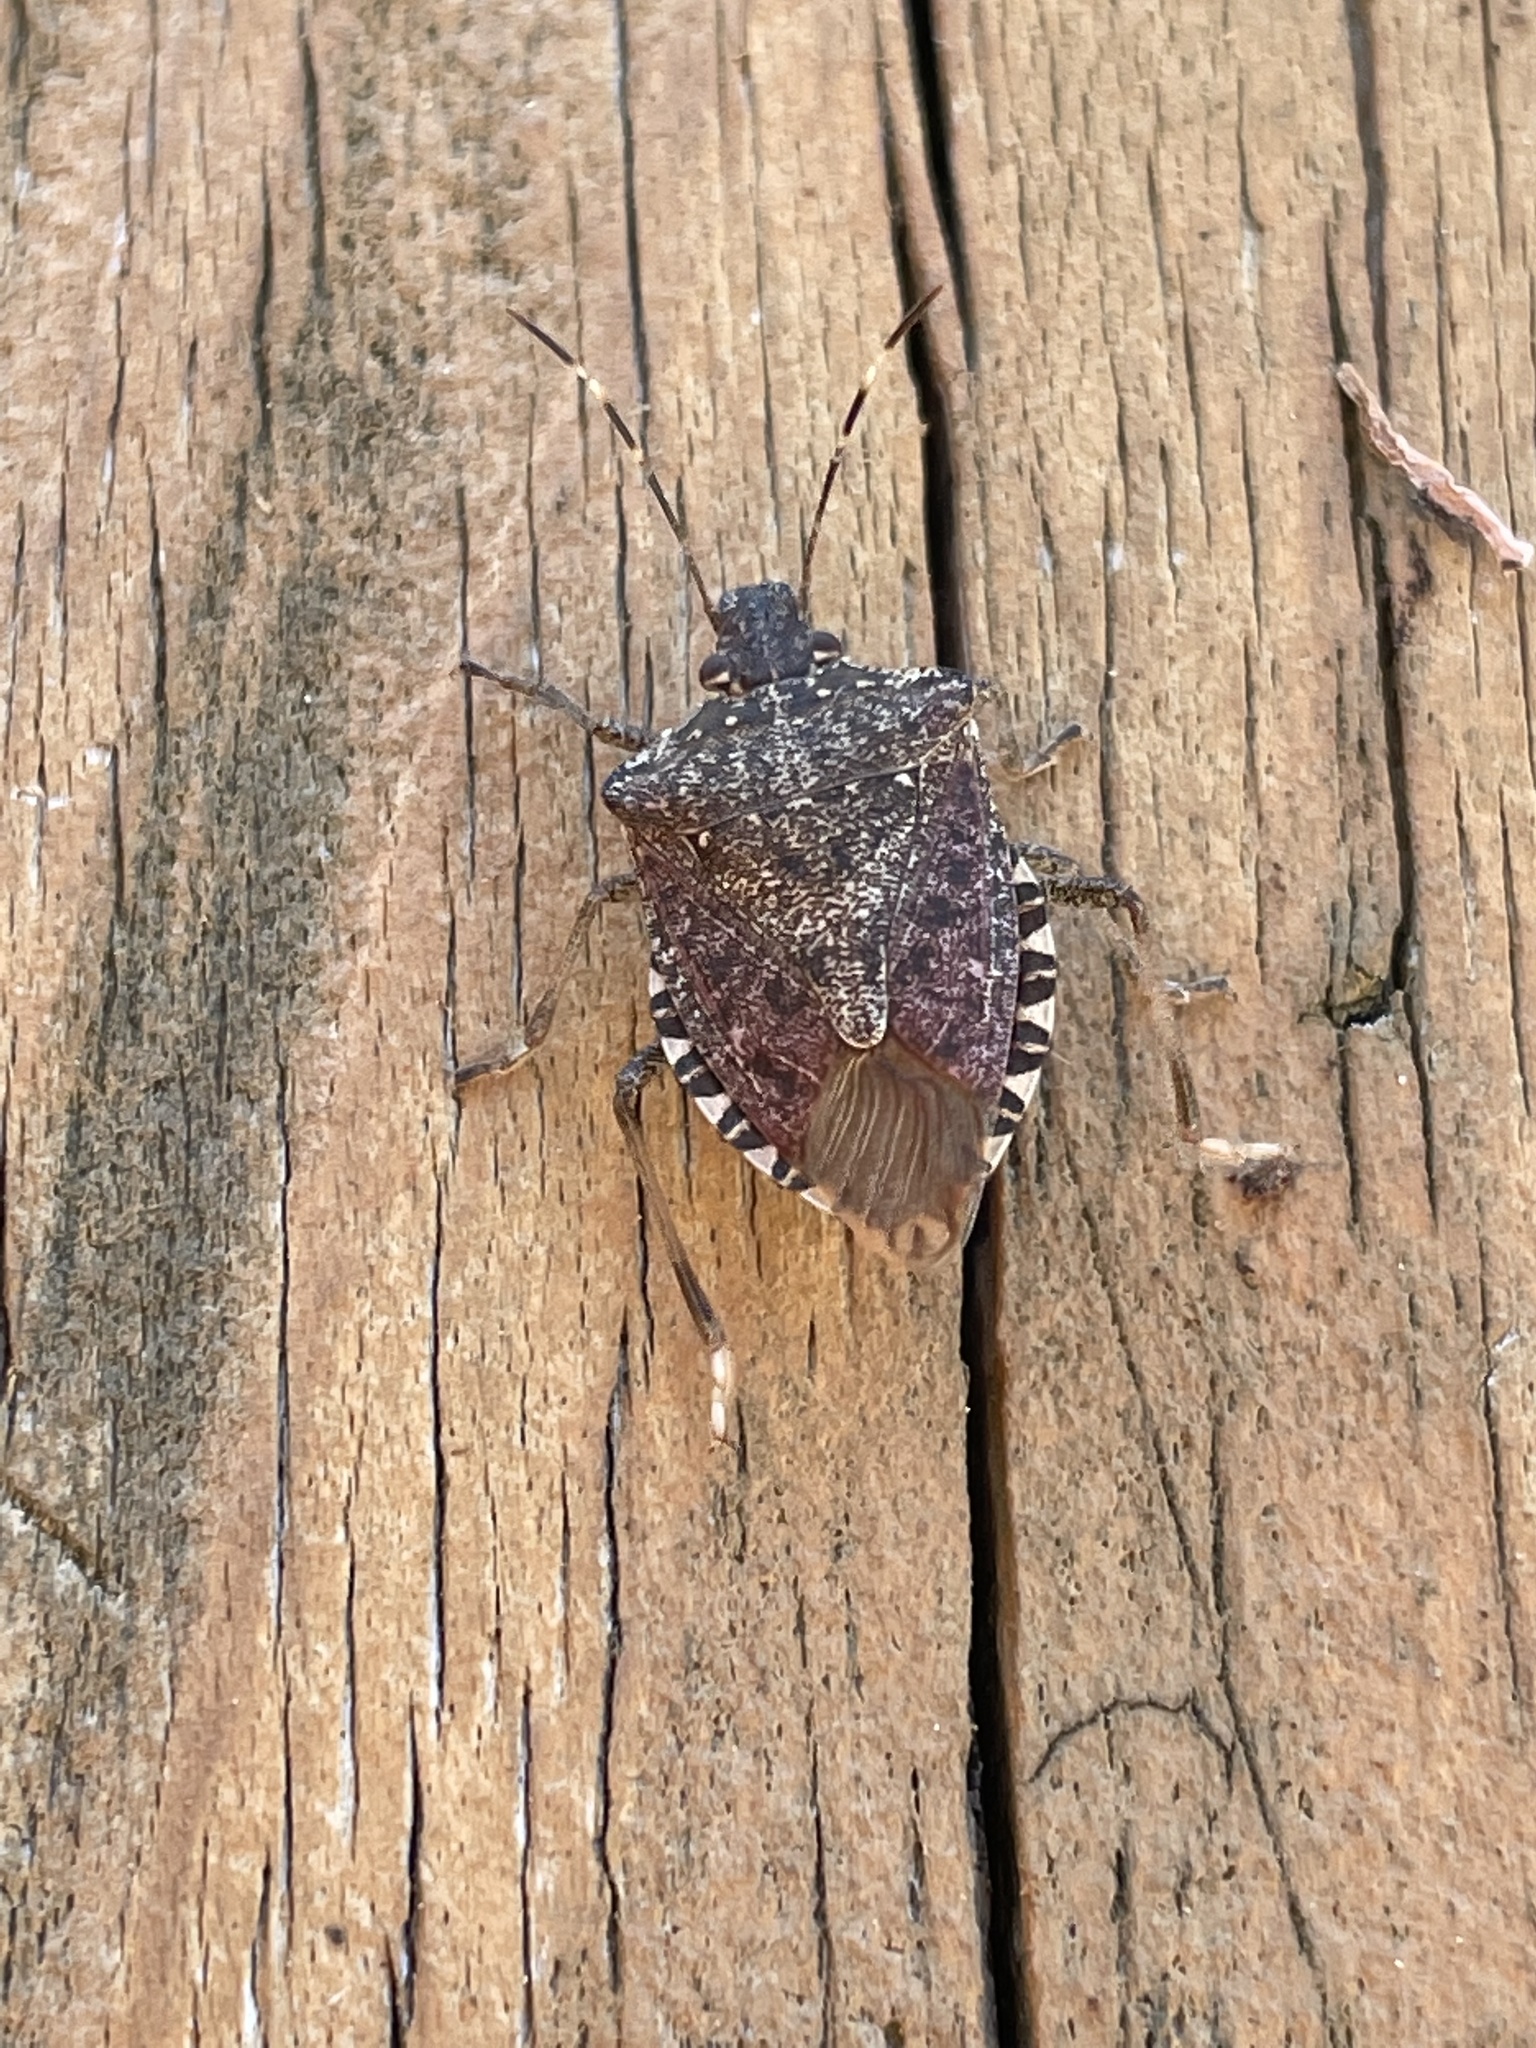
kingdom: Animalia
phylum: Arthropoda
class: Insecta
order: Hemiptera
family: Pentatomidae
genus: Halyomorpha
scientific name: Halyomorpha halys
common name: Brown marmorated stink bug
